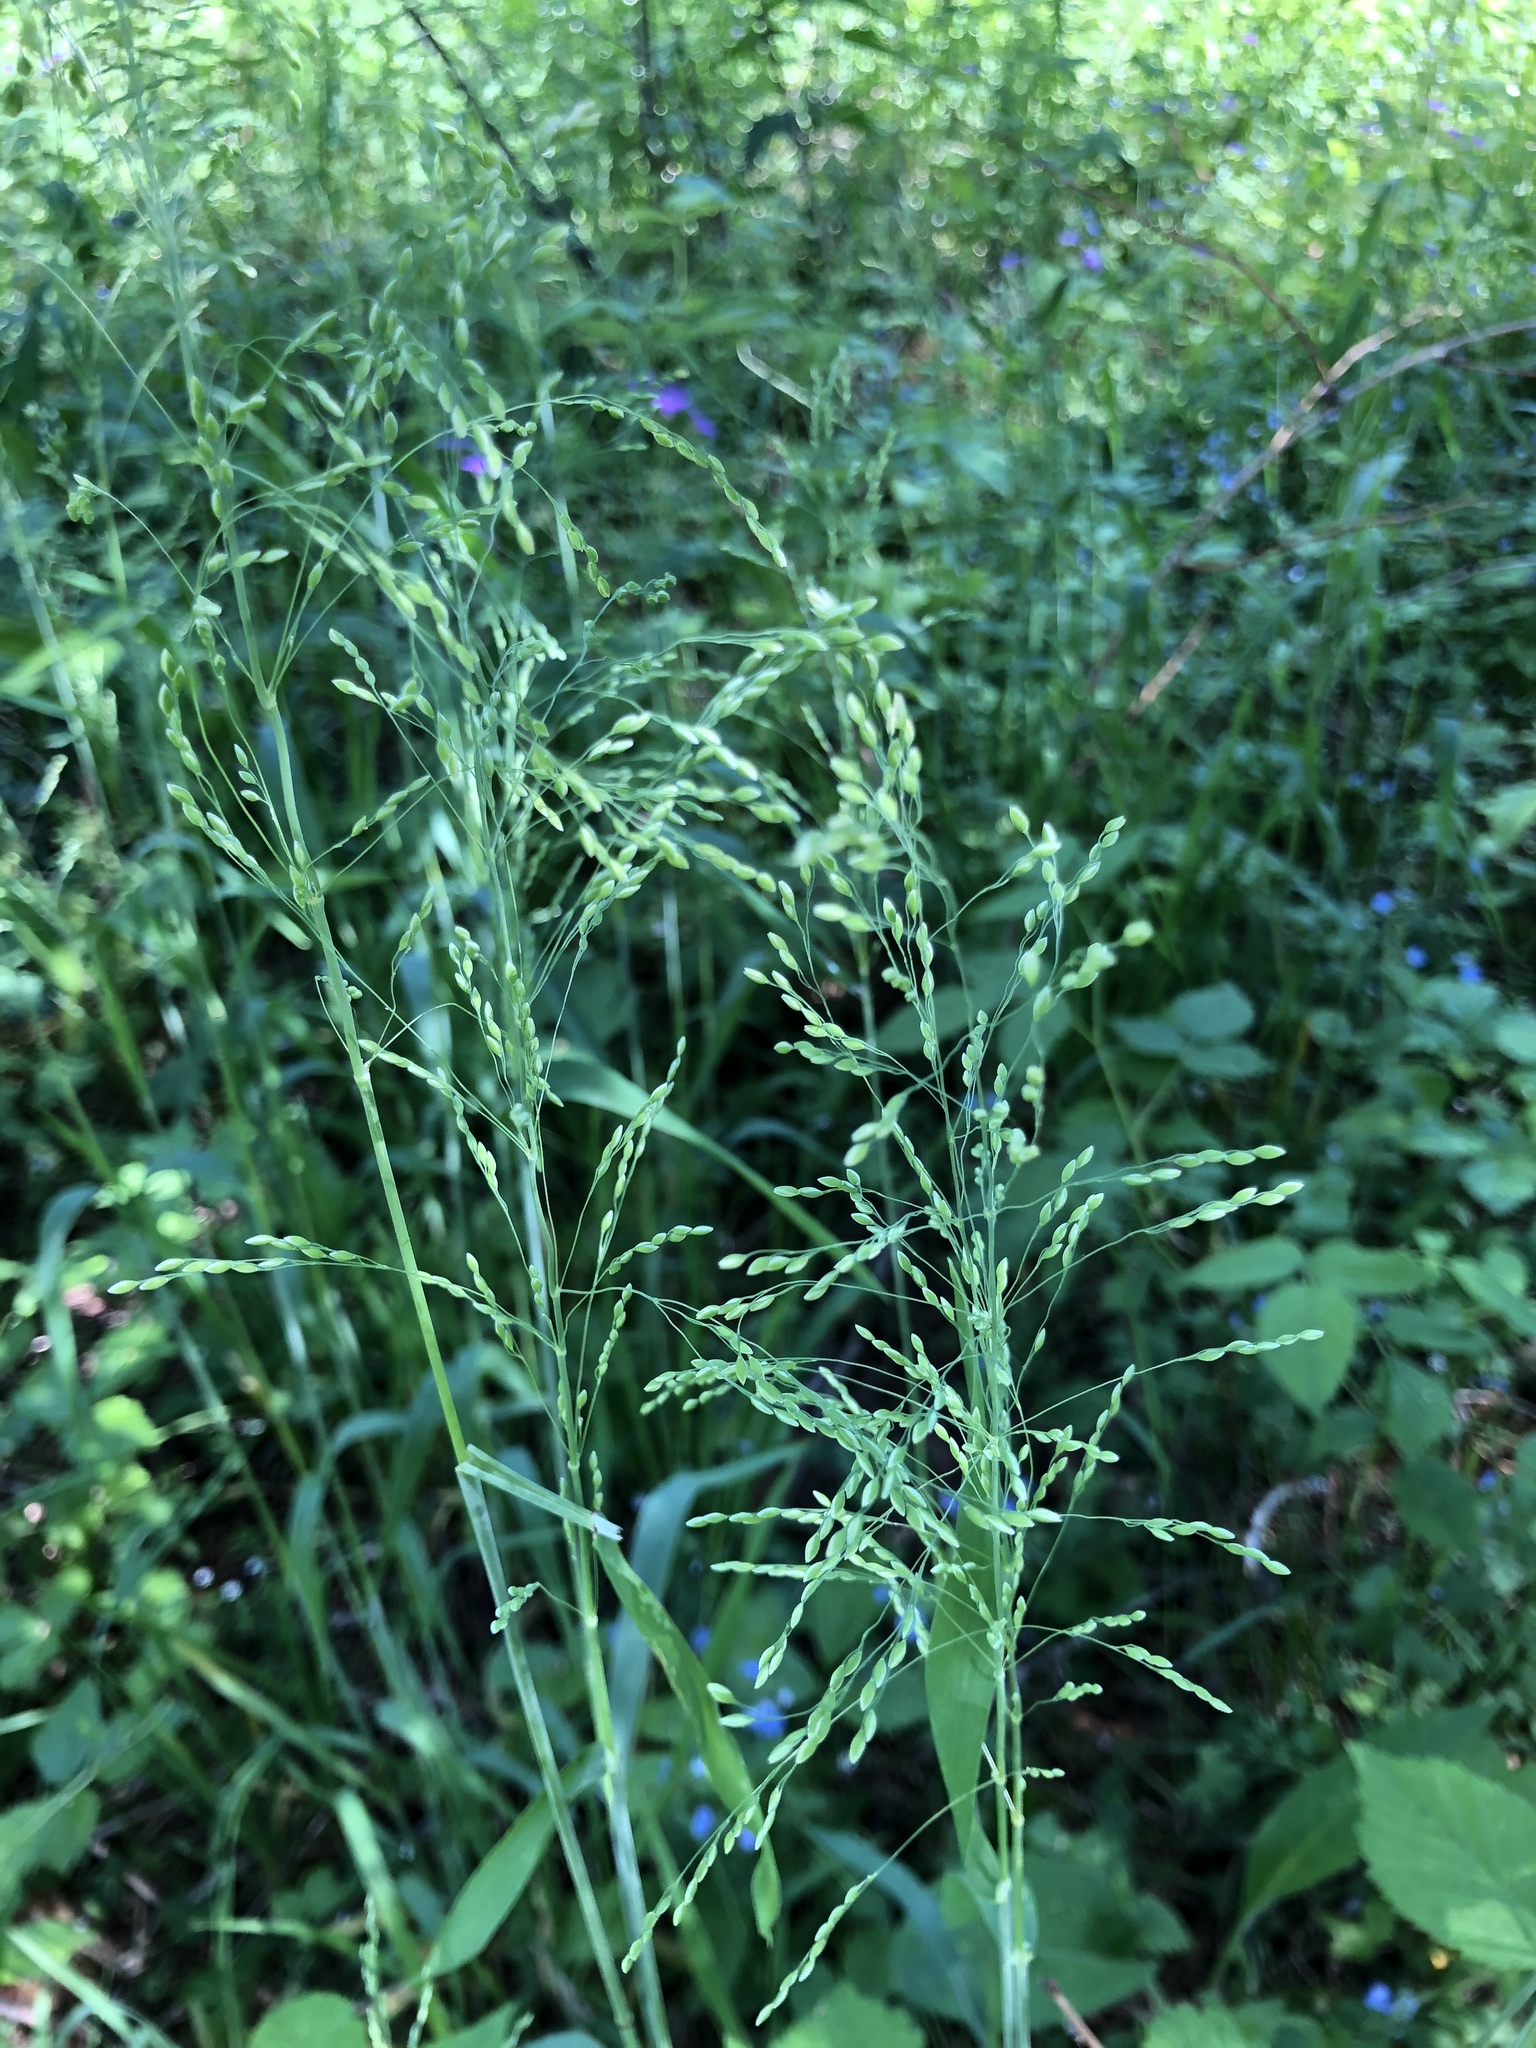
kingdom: Plantae
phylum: Tracheophyta
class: Liliopsida
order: Poales
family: Poaceae
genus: Milium
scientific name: Milium effusum
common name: Wood millet
